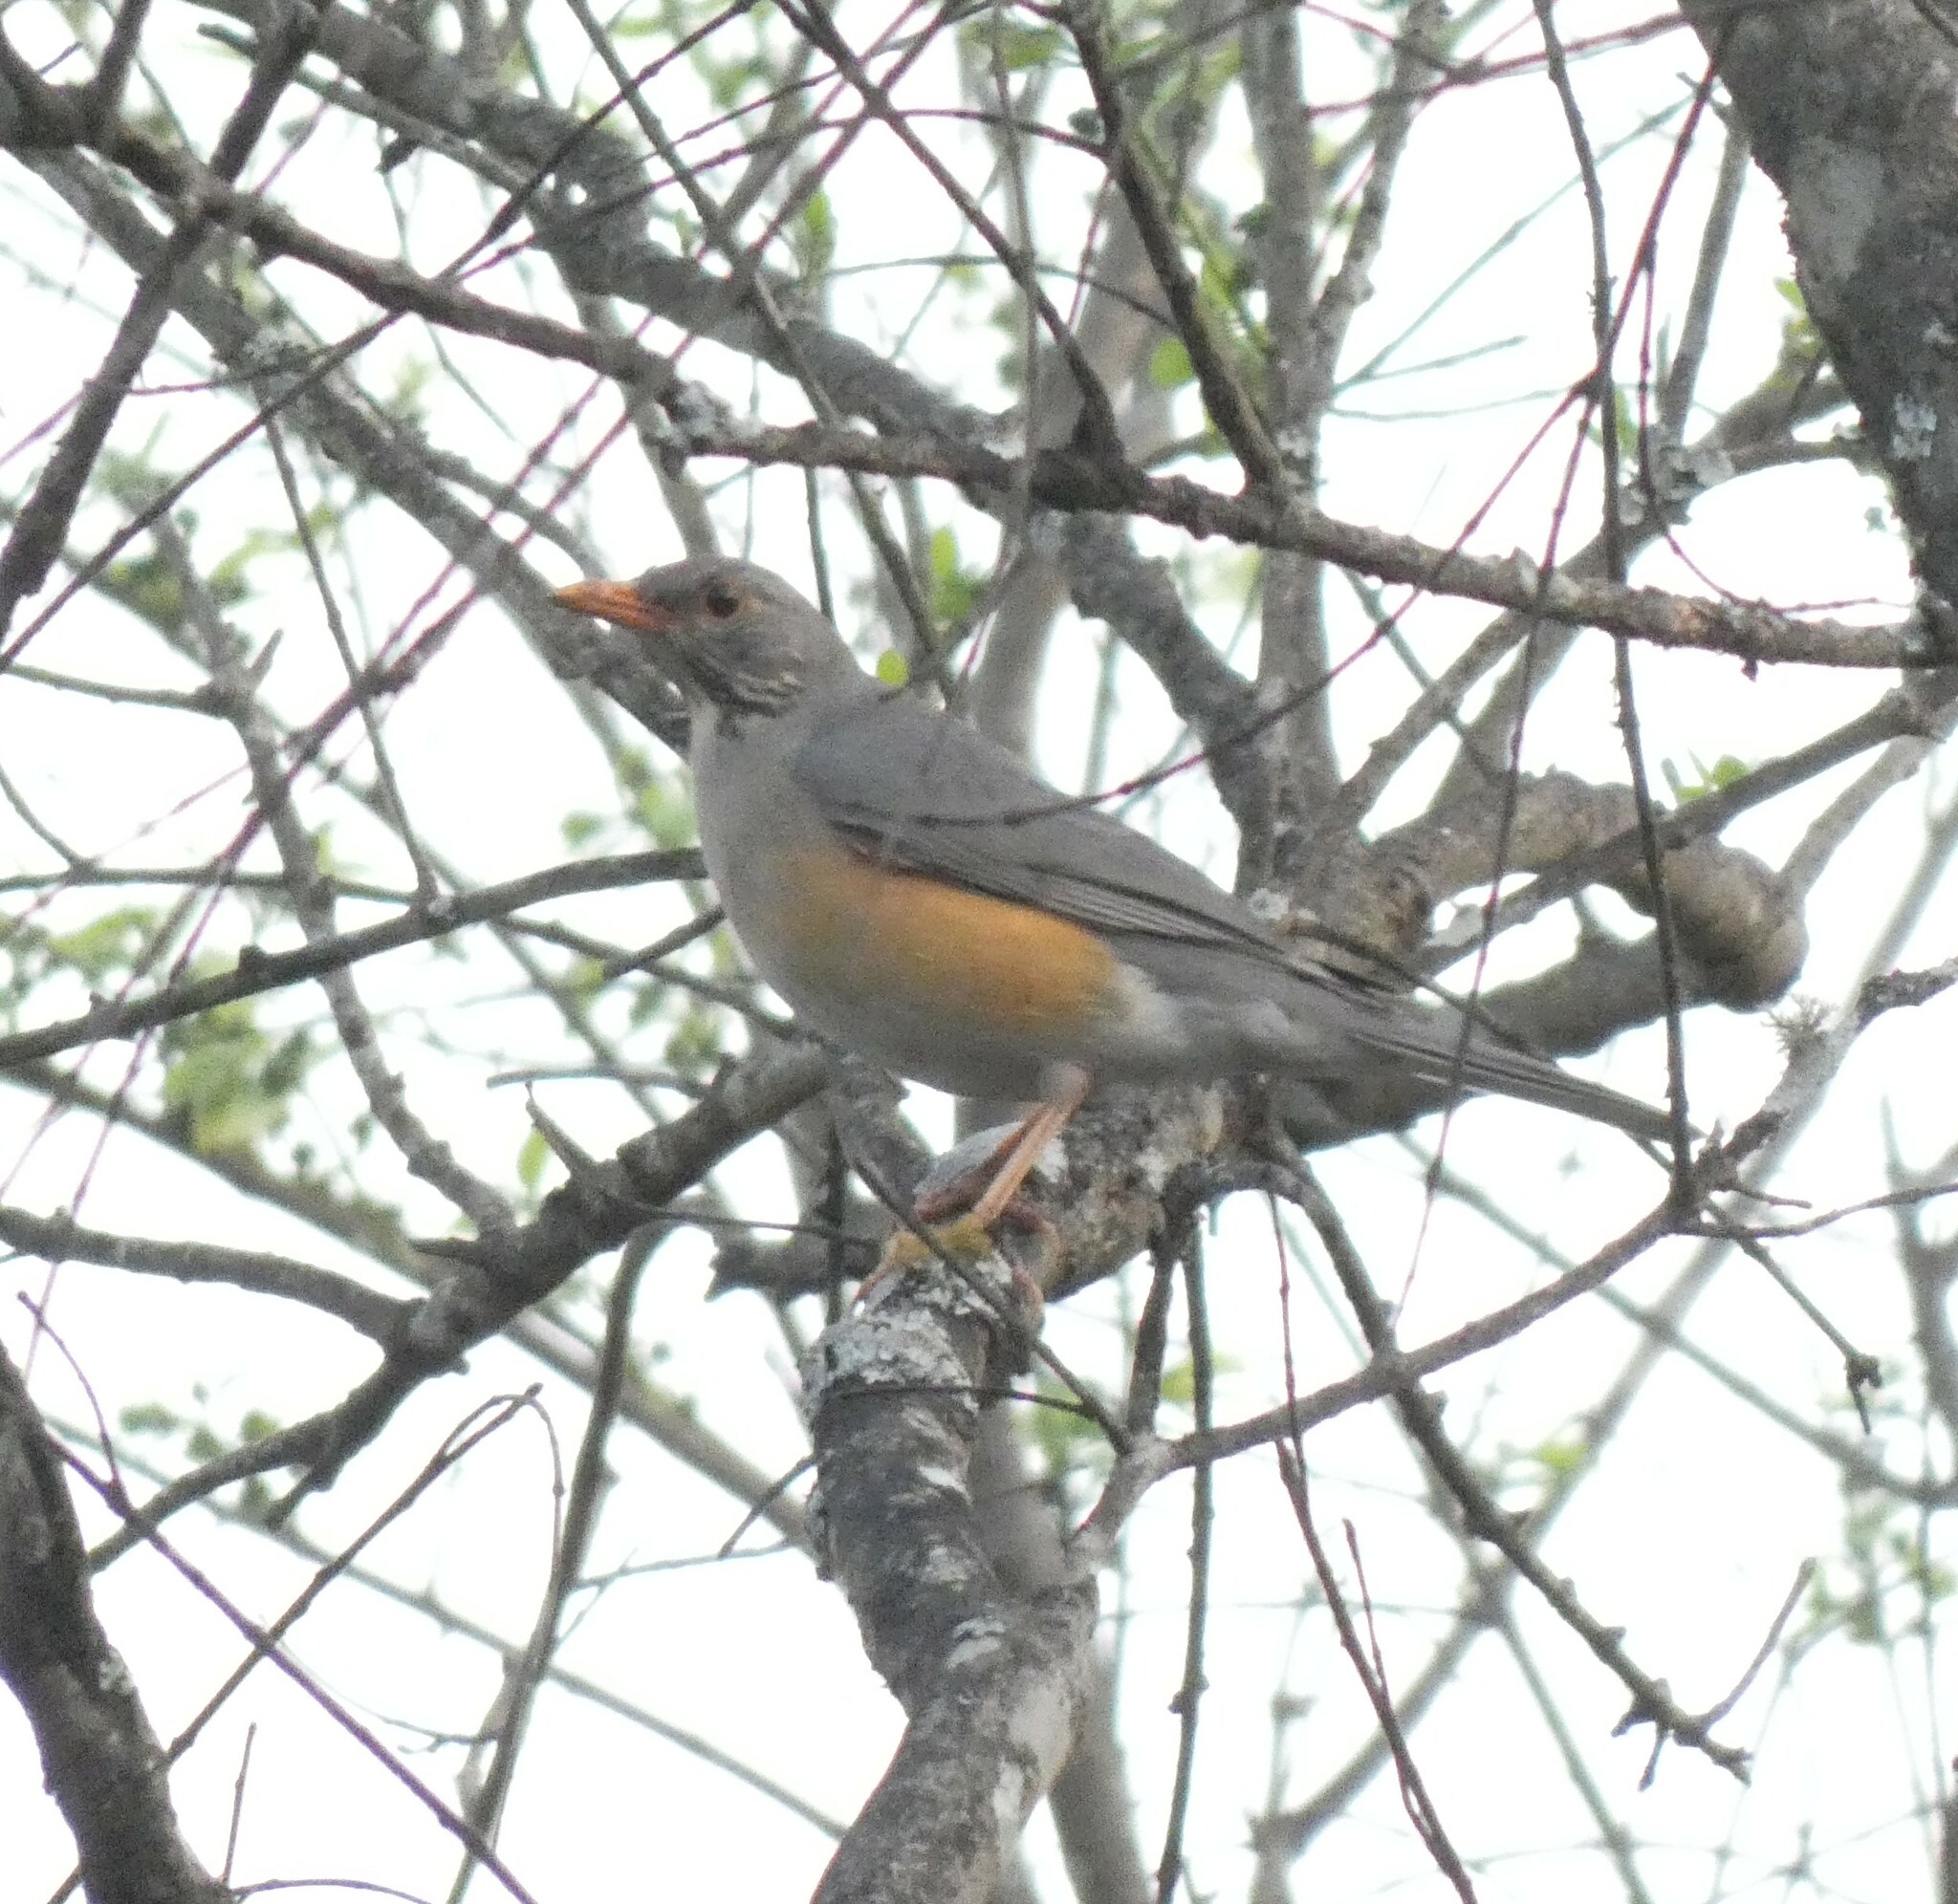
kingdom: Animalia
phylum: Chordata
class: Aves
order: Passeriformes
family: Turdidae
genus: Turdus
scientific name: Turdus libonyana
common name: Kurrichane thrush
